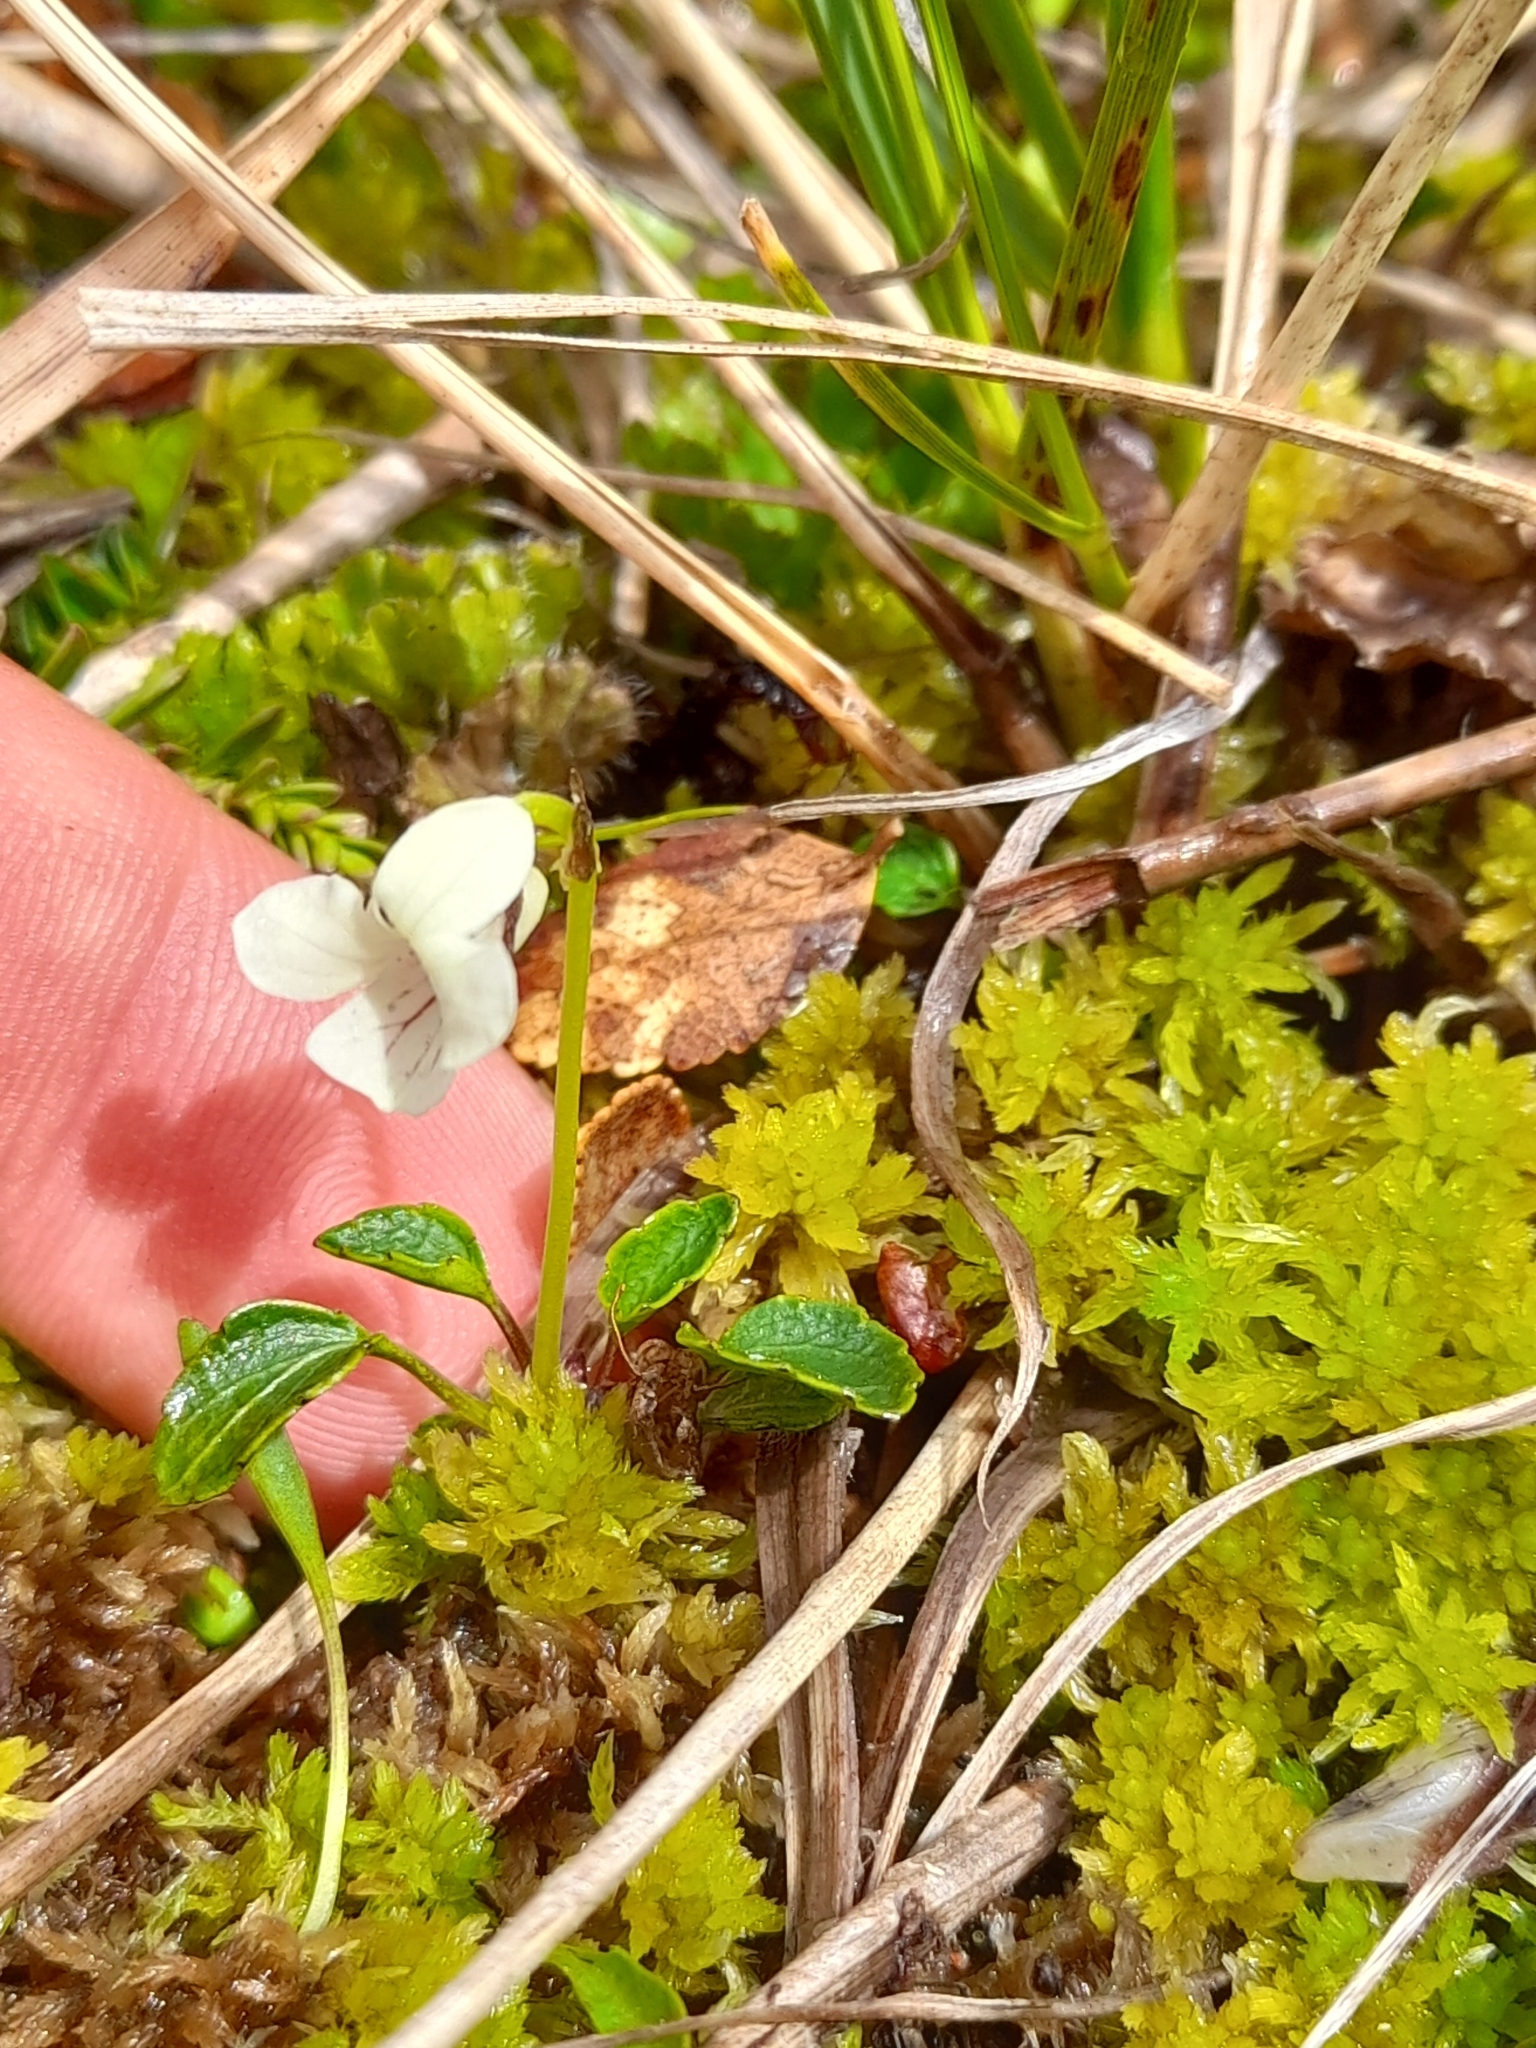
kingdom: Plantae
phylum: Tracheophyta
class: Magnoliopsida
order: Malpighiales
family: Violaceae
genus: Viola
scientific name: Viola commersonii
